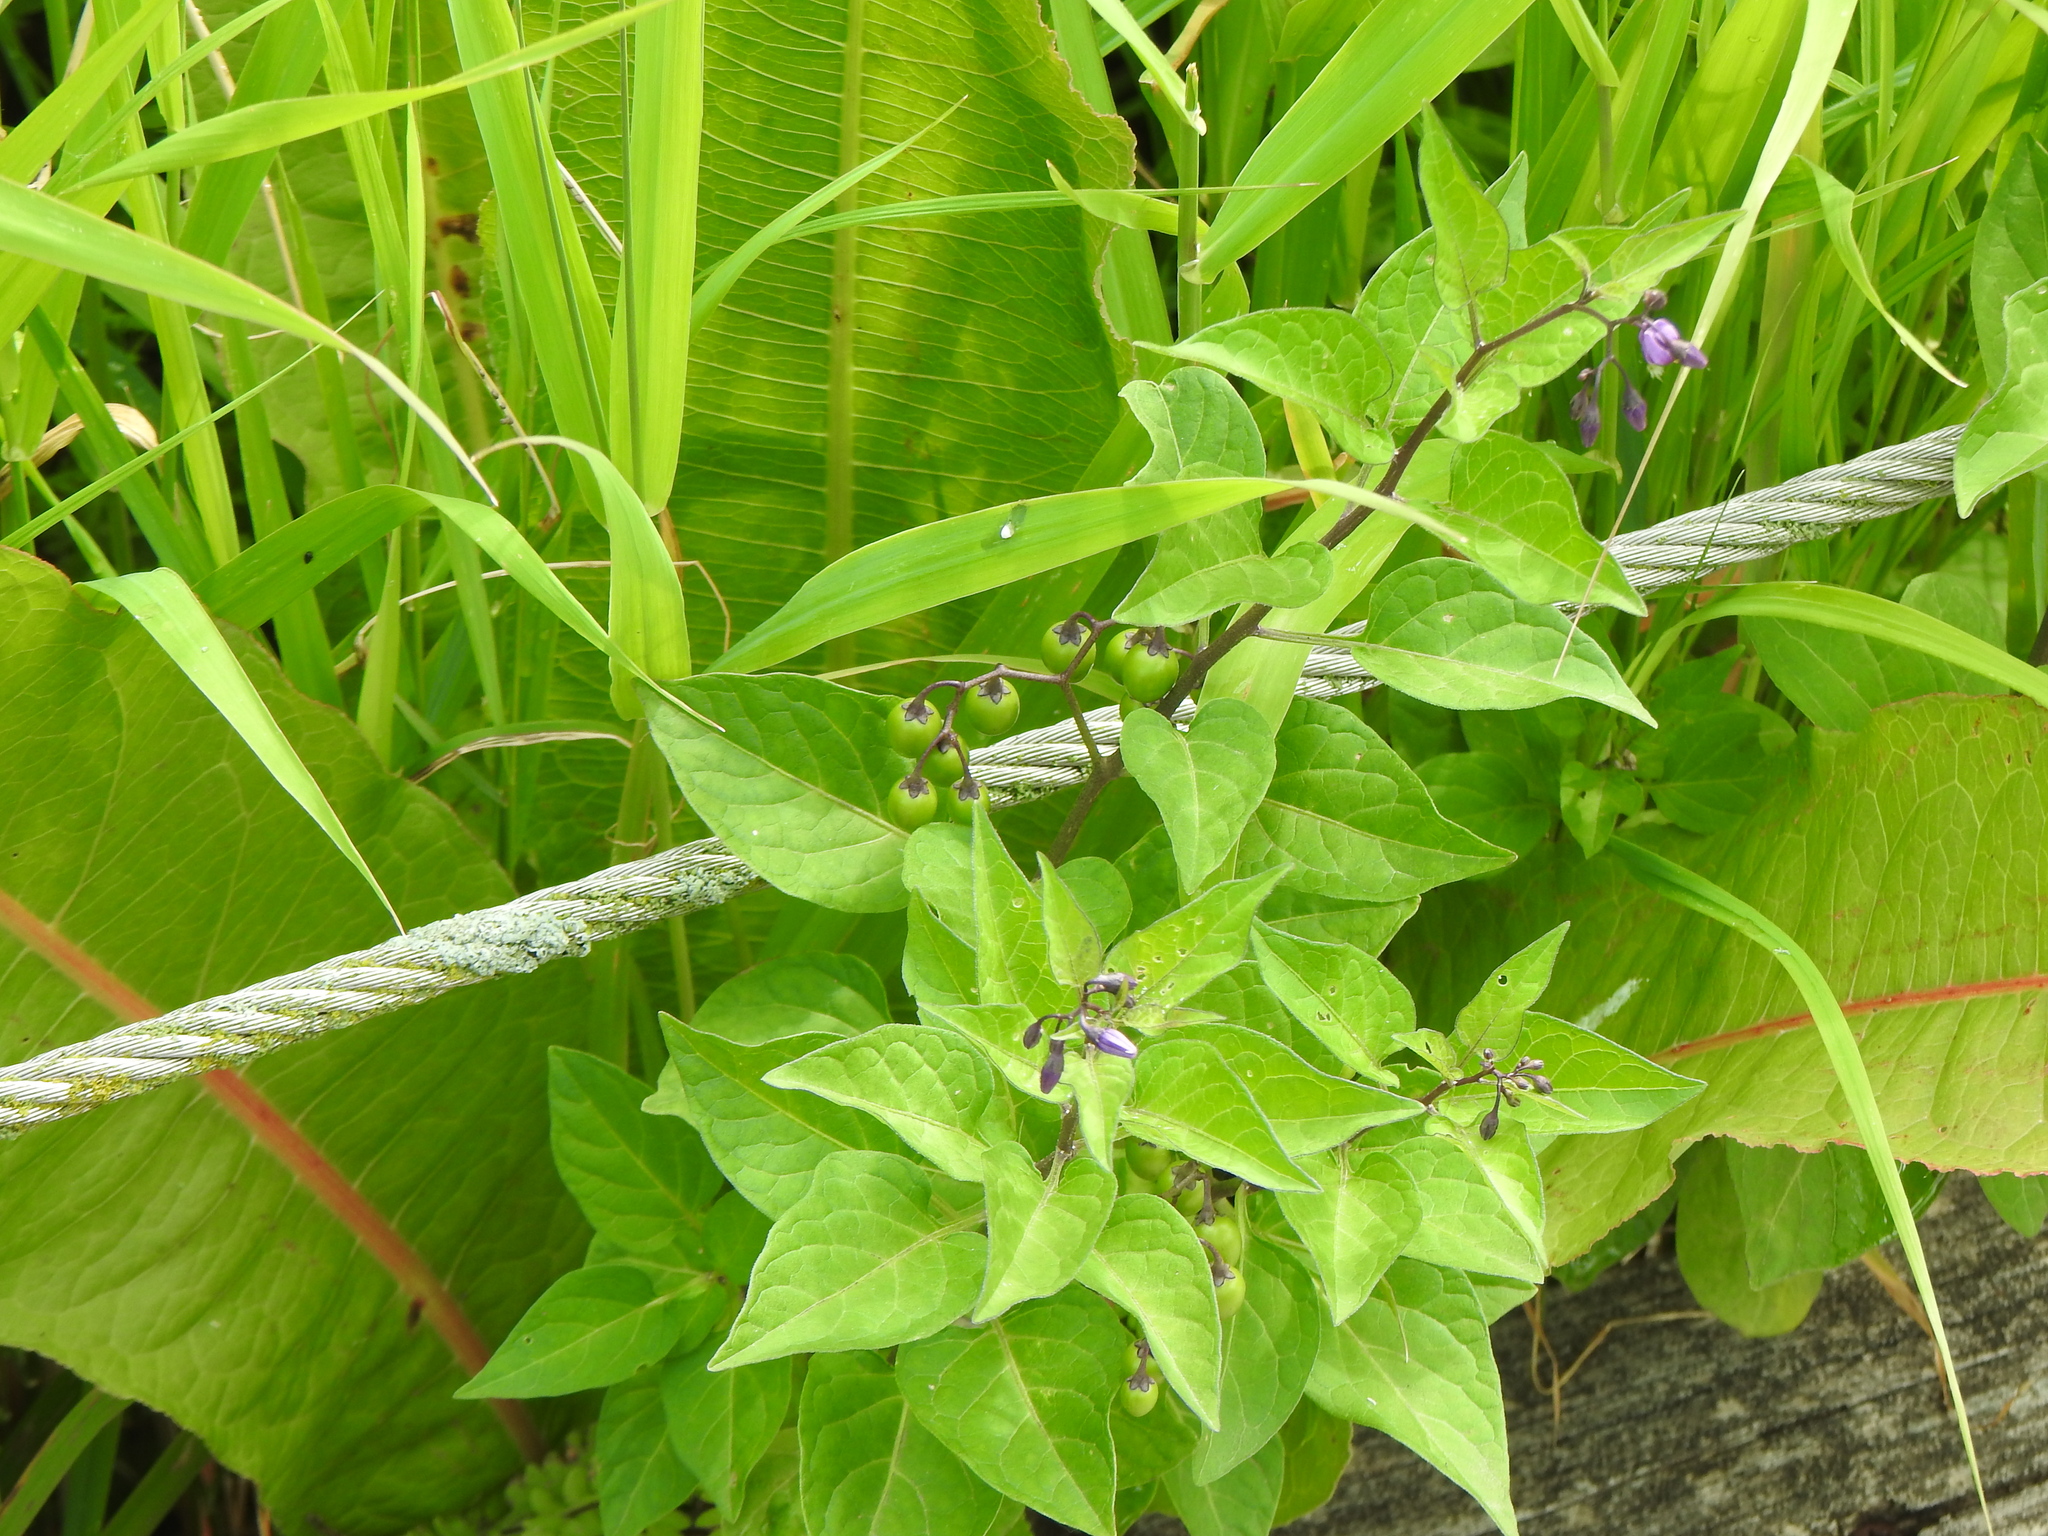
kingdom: Plantae
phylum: Tracheophyta
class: Magnoliopsida
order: Solanales
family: Solanaceae
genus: Solanum
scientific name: Solanum dulcamara
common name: Climbing nightshade
